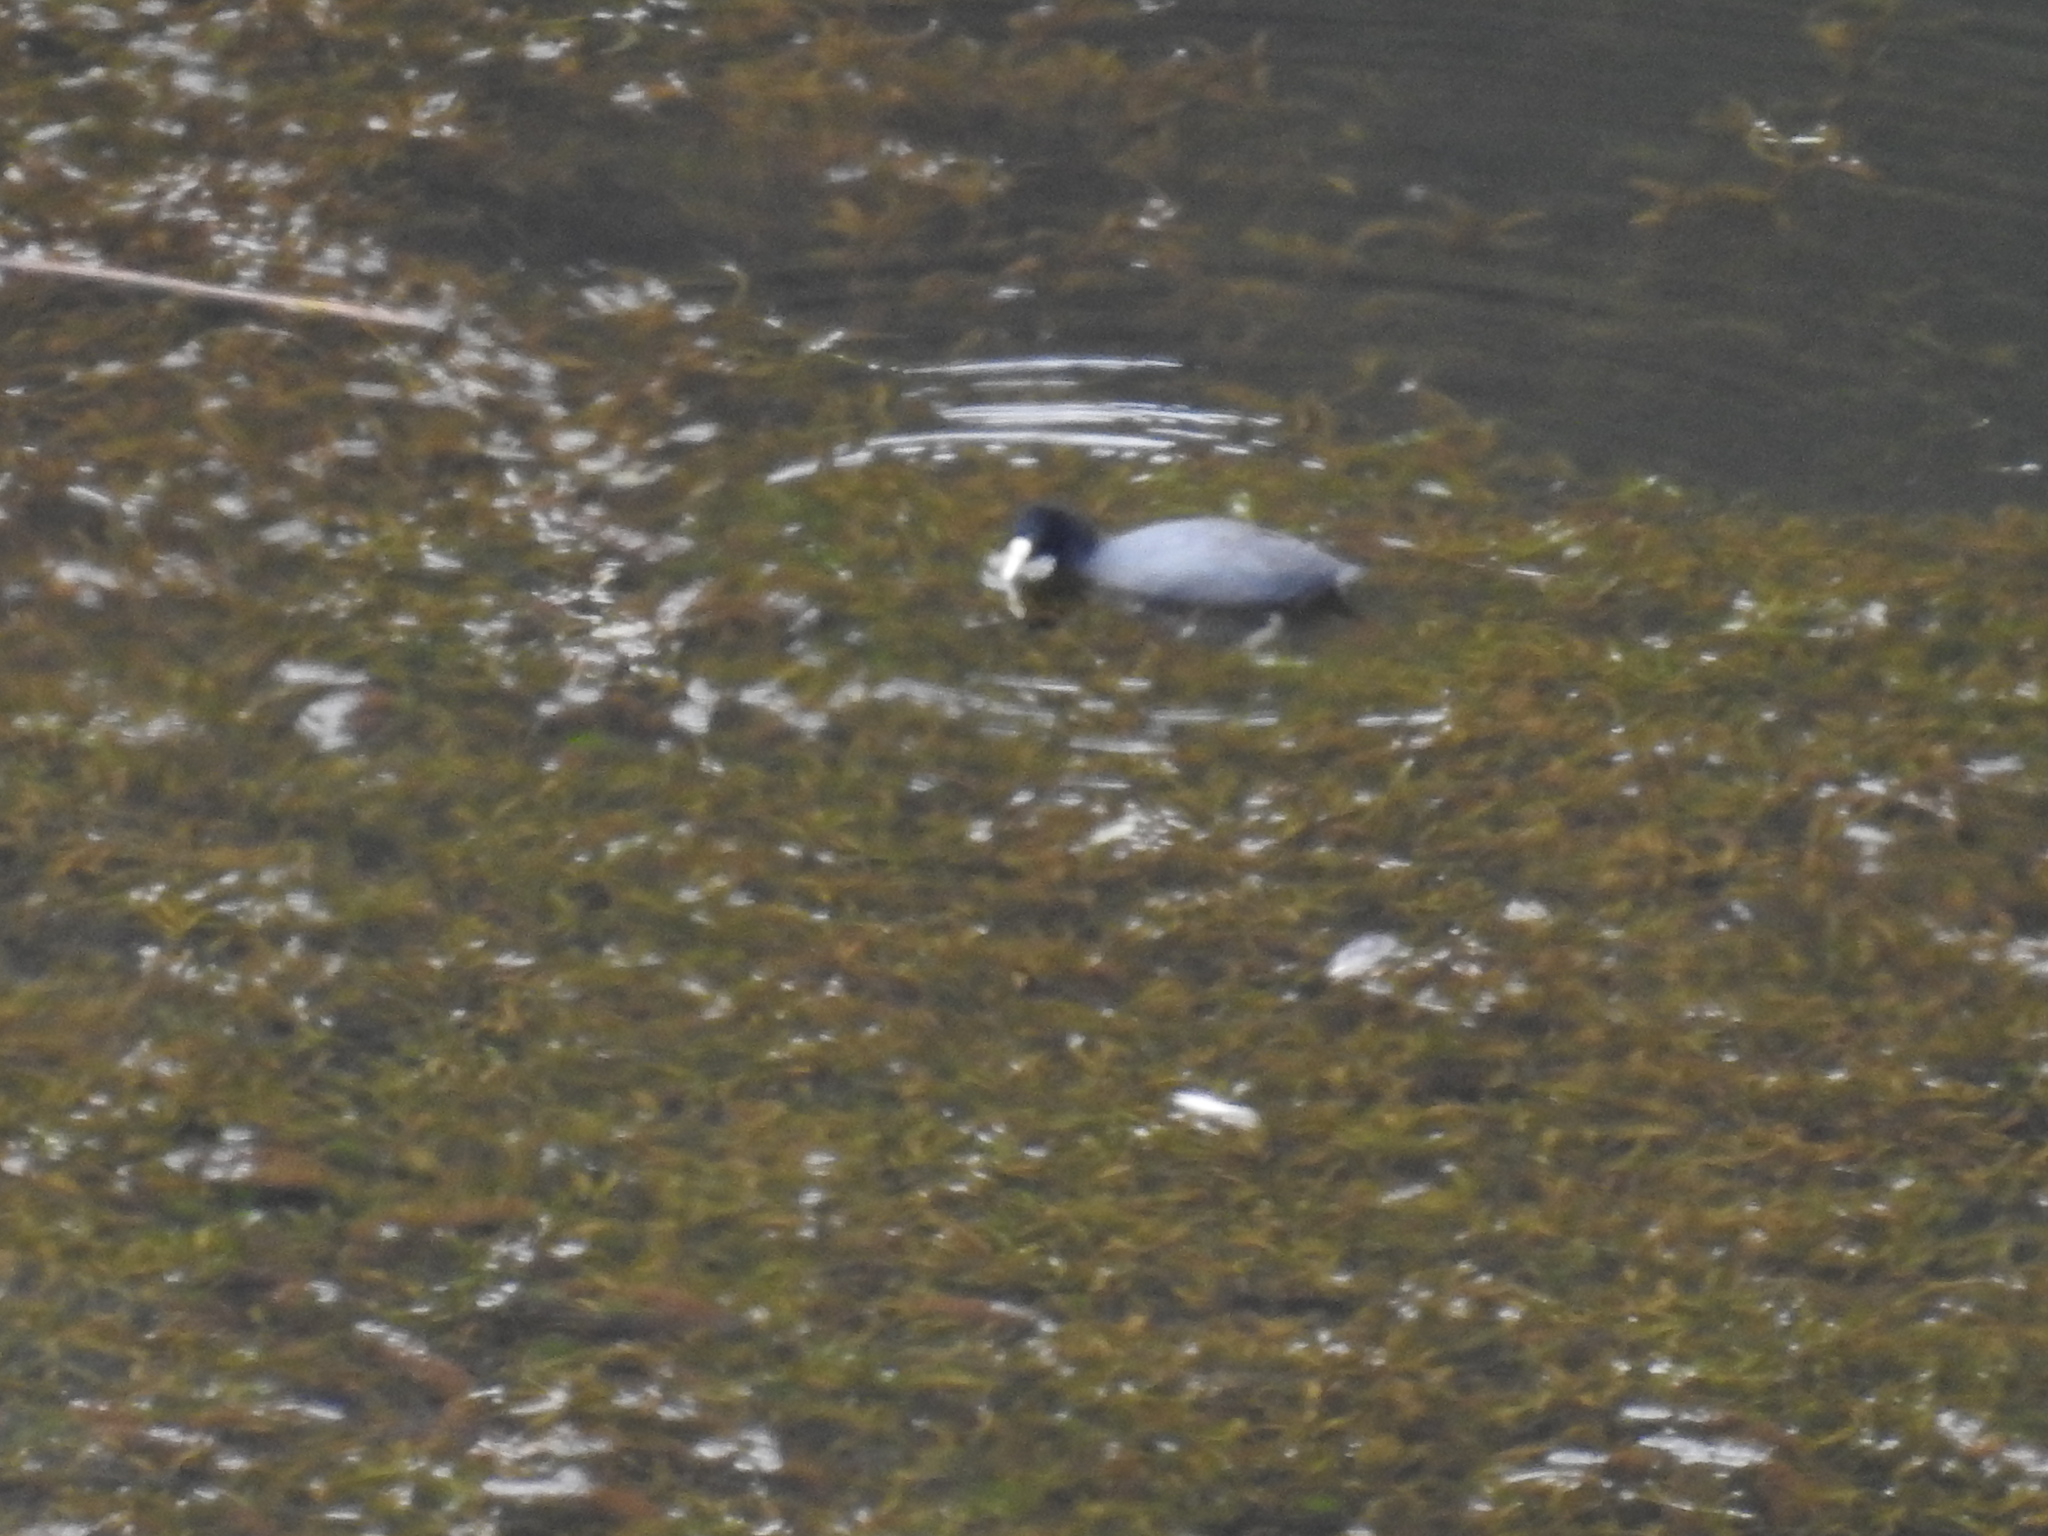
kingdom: Animalia
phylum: Chordata
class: Aves
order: Gruiformes
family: Rallidae
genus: Fulica
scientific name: Fulica ardesiaca
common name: Andean coot
